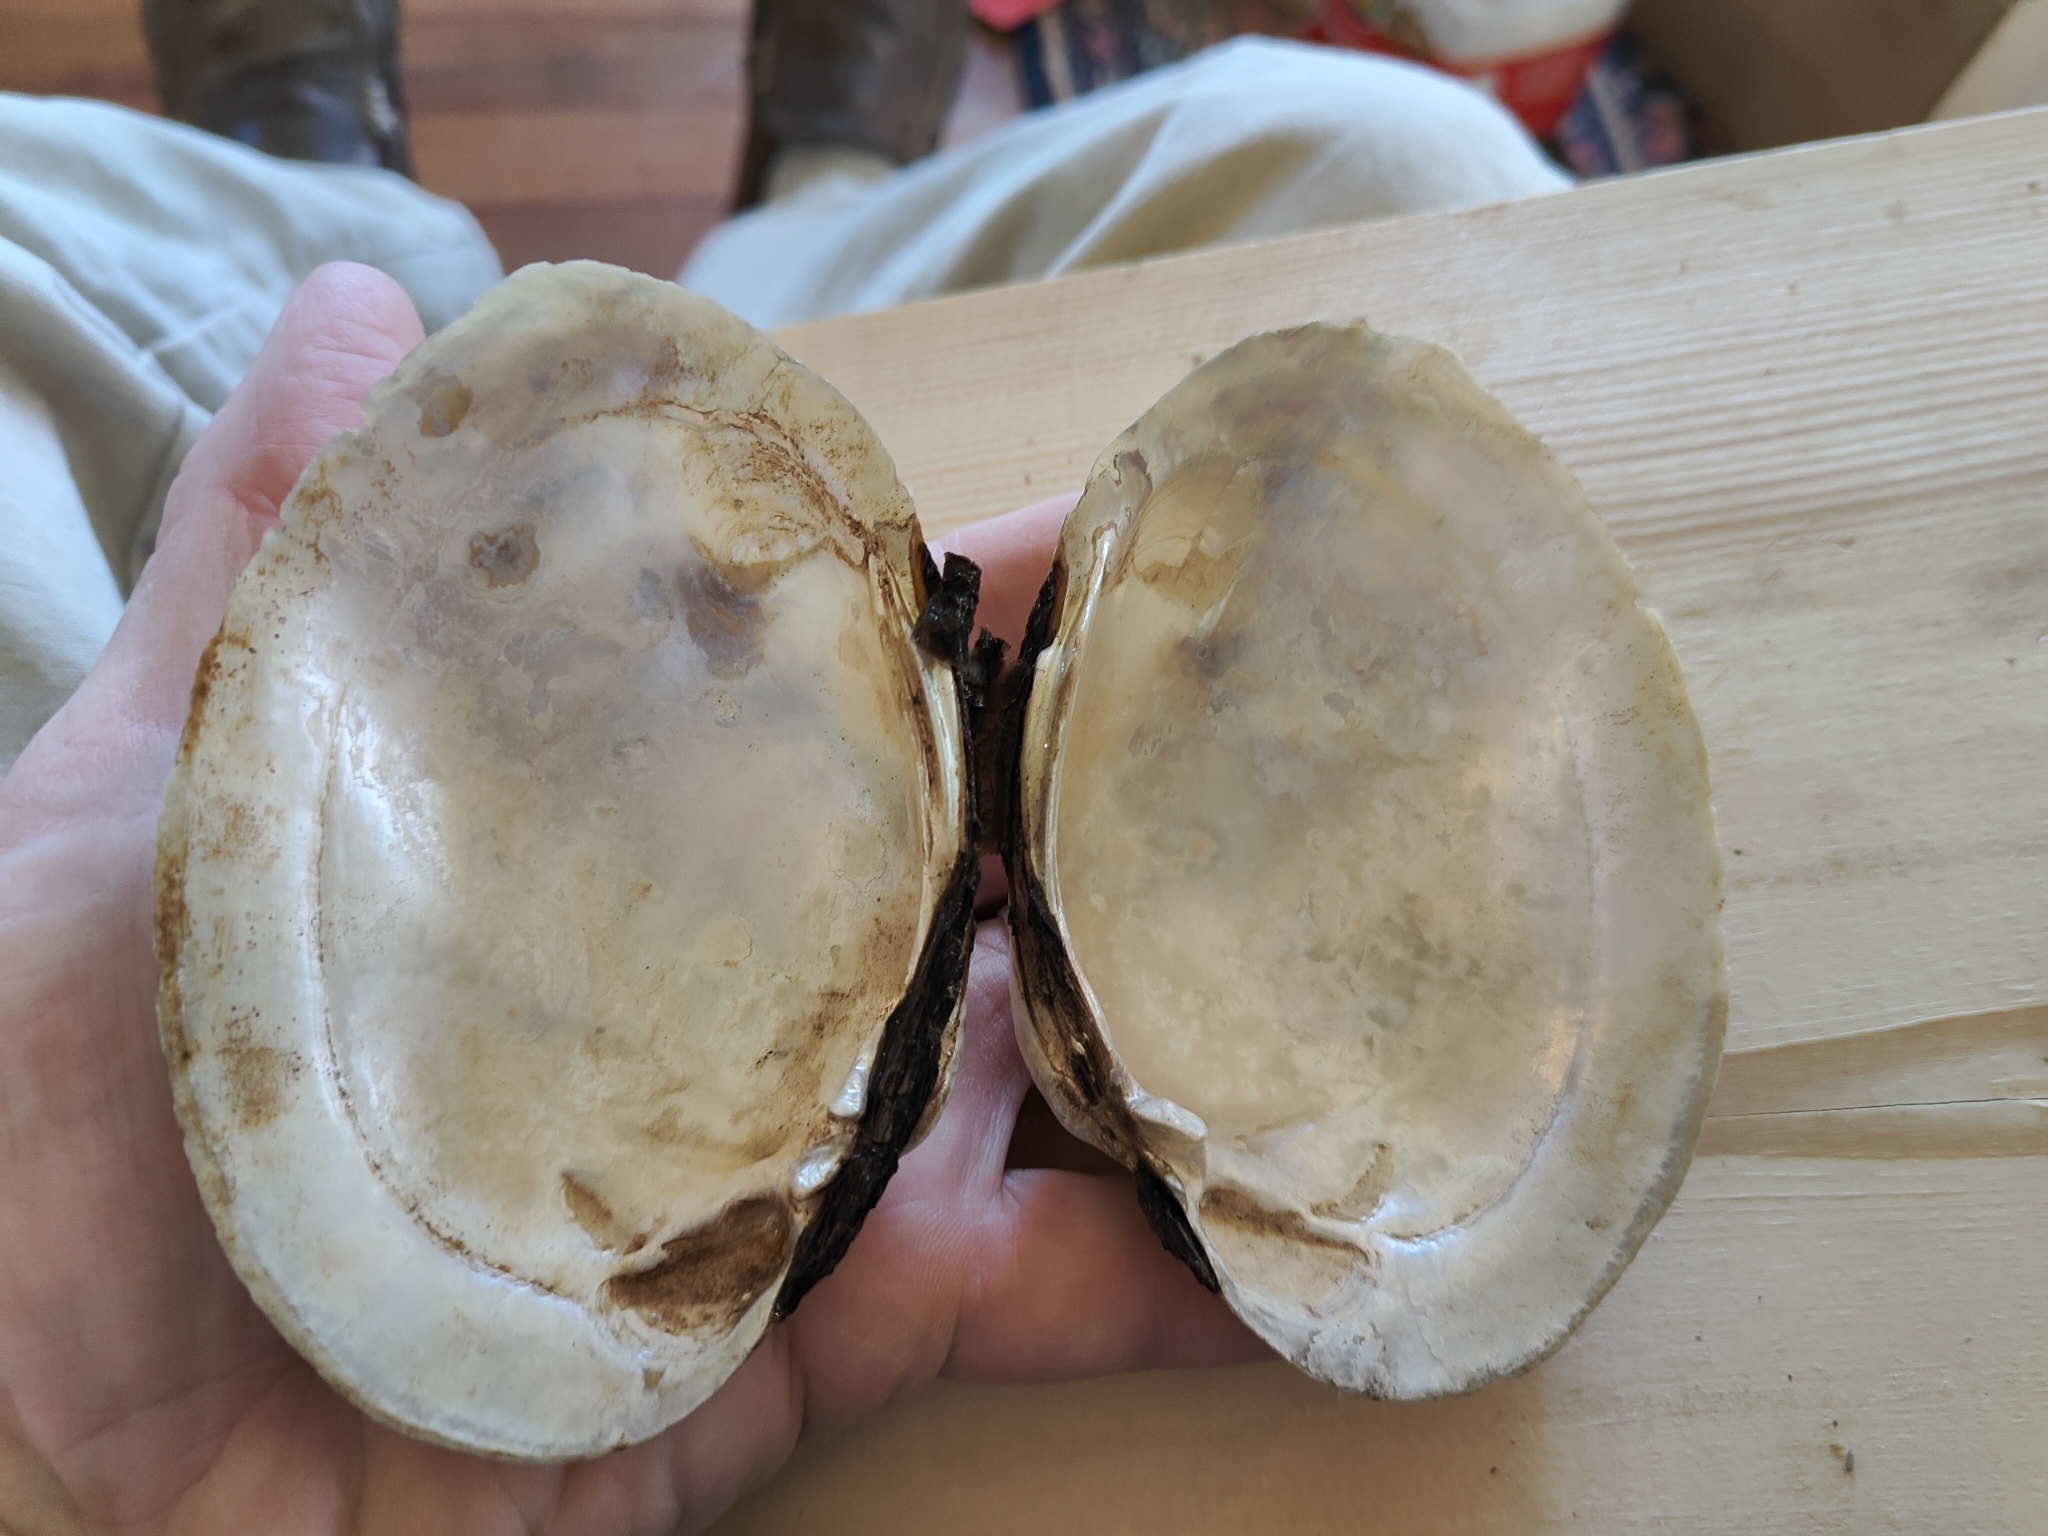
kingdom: Animalia
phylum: Mollusca
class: Bivalvia
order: Unionida
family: Unionidae
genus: Lampsilis
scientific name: Lampsilis cardium
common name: Plain pocketbook
